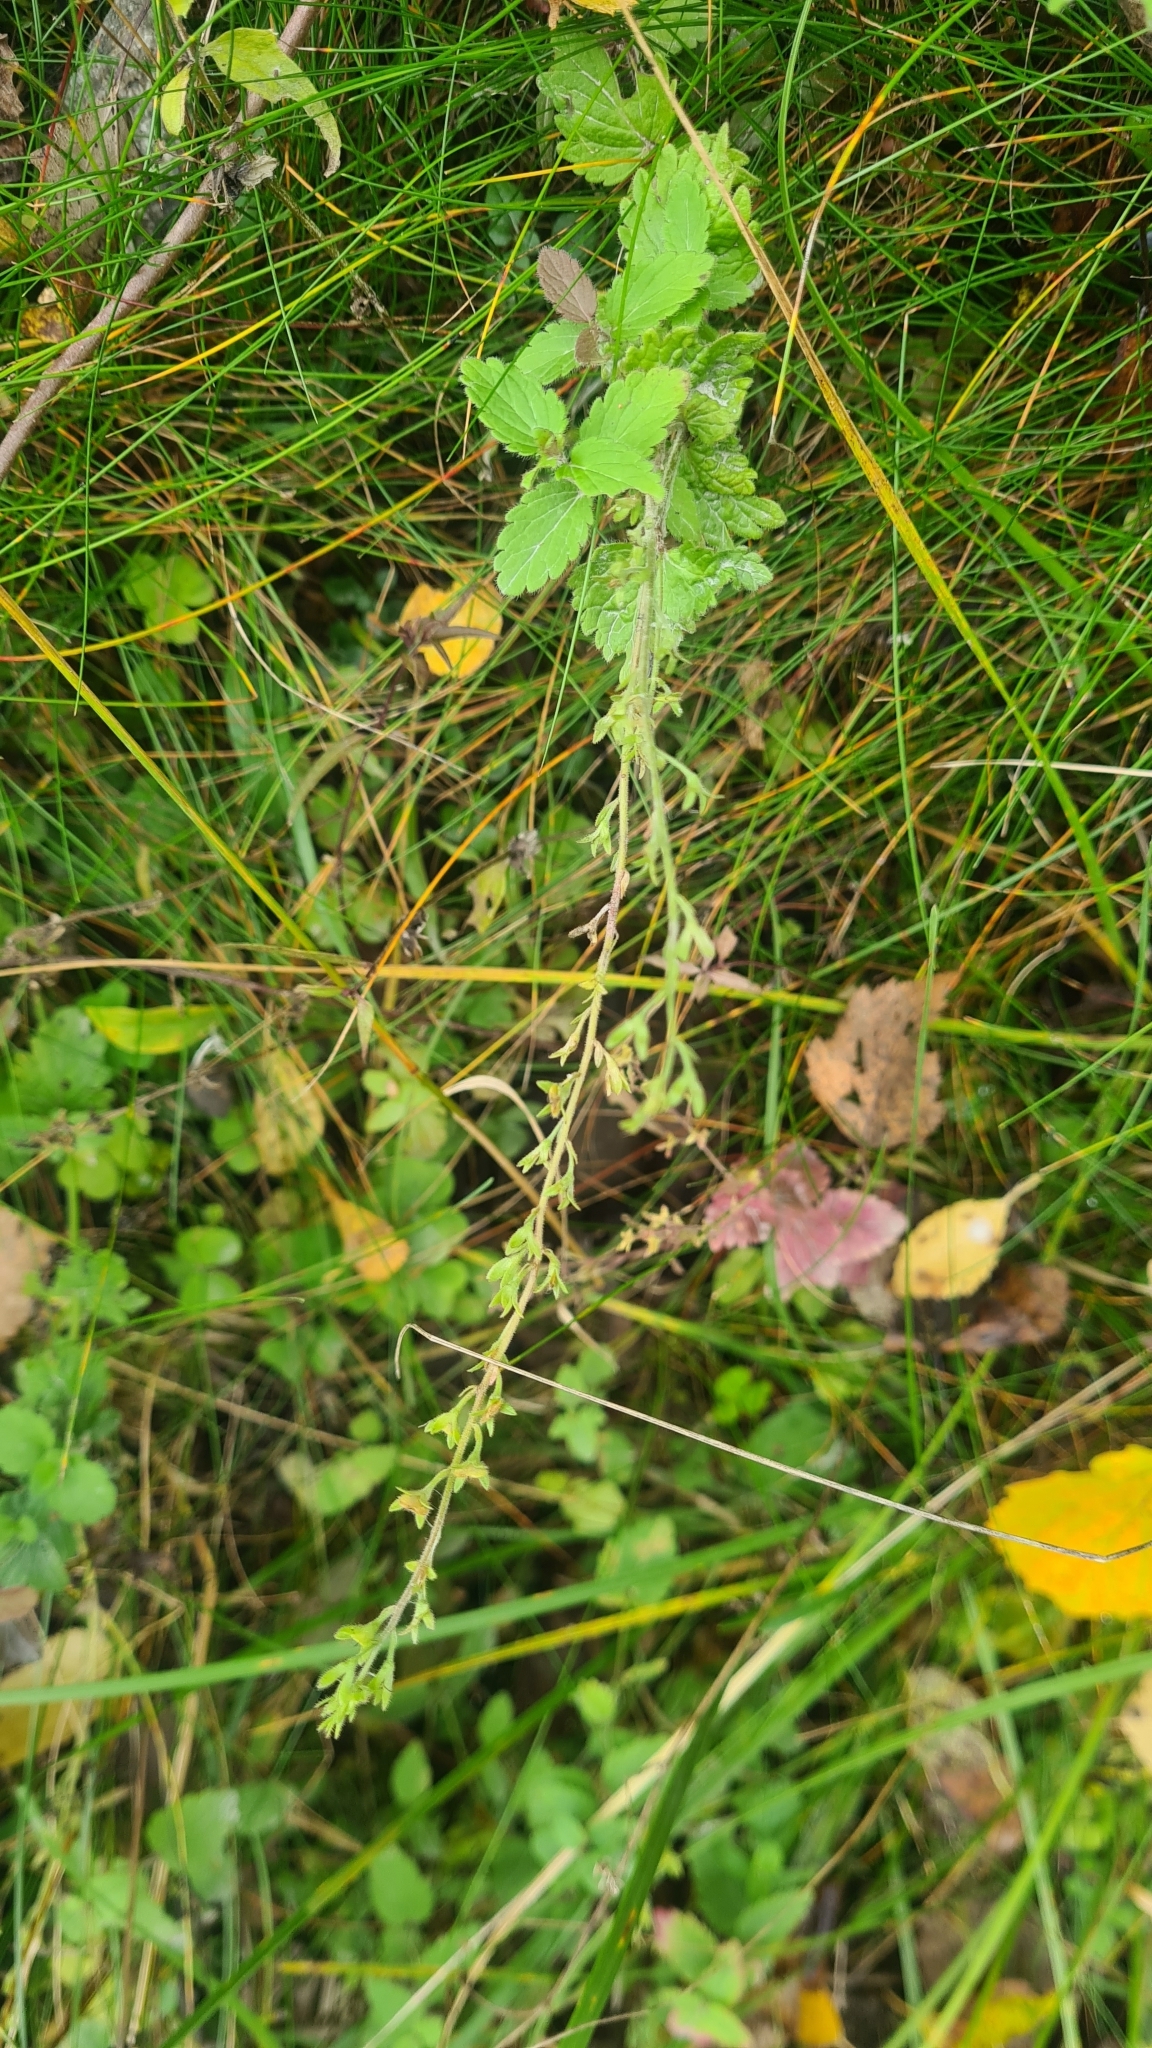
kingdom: Plantae
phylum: Tracheophyta
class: Magnoliopsida
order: Lamiales
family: Plantaginaceae
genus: Veronica
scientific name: Veronica chamaedrys
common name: Germander speedwell
